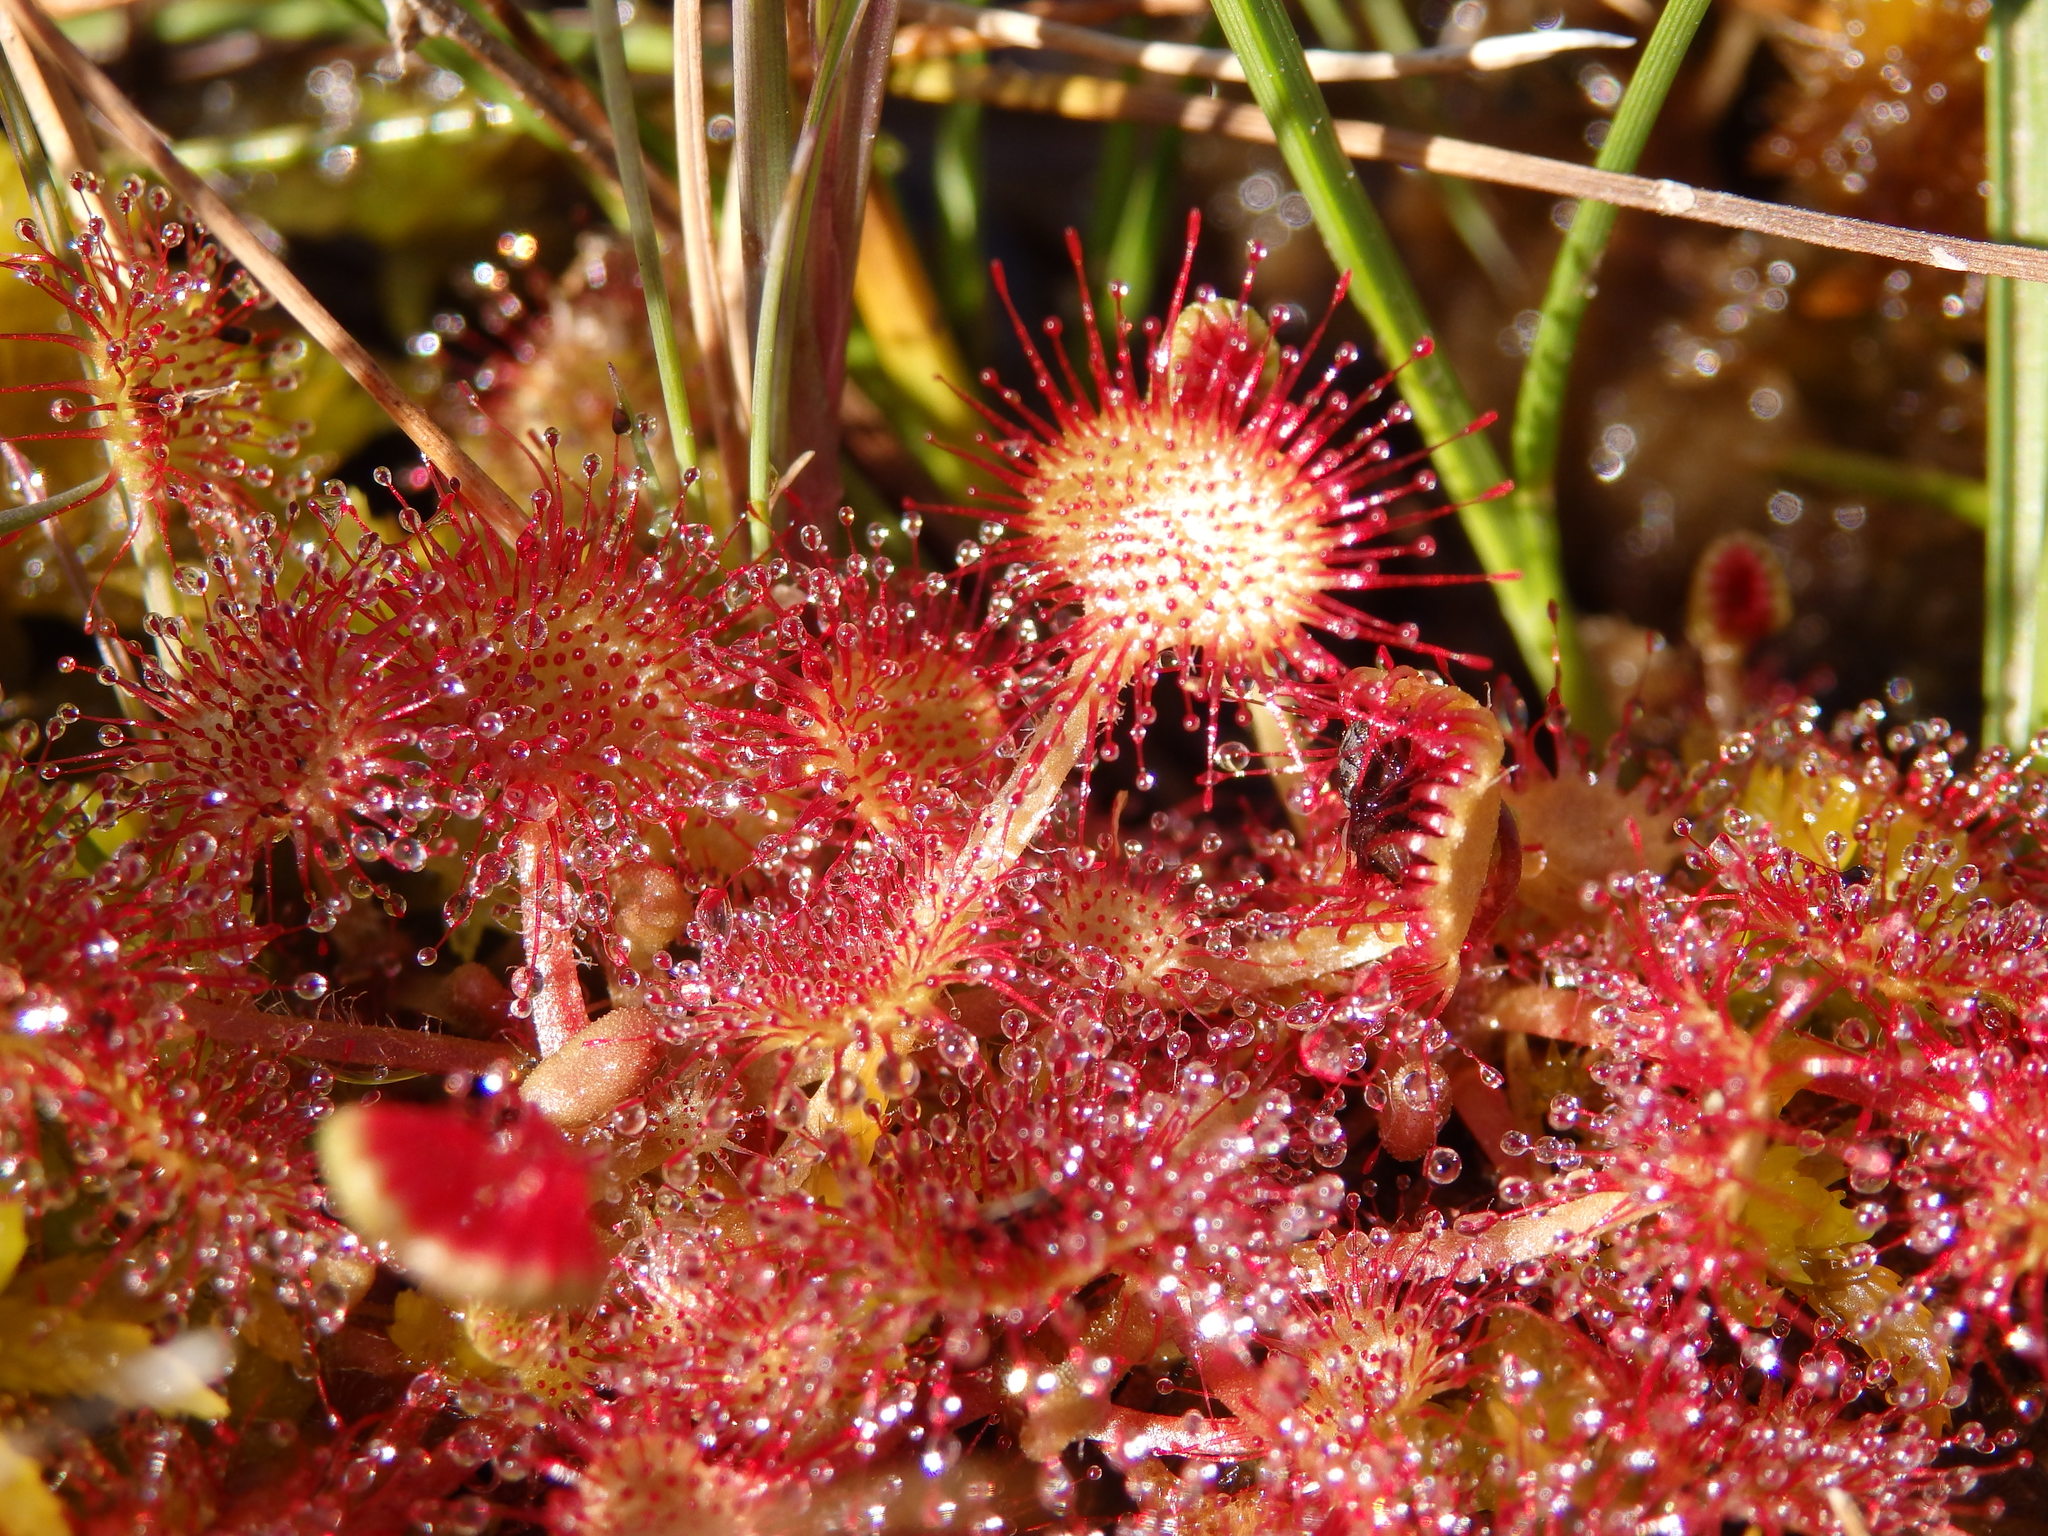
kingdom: Plantae
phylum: Tracheophyta
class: Magnoliopsida
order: Caryophyllales
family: Droseraceae
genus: Drosera
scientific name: Drosera rotundifolia
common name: Round-leaved sundew
